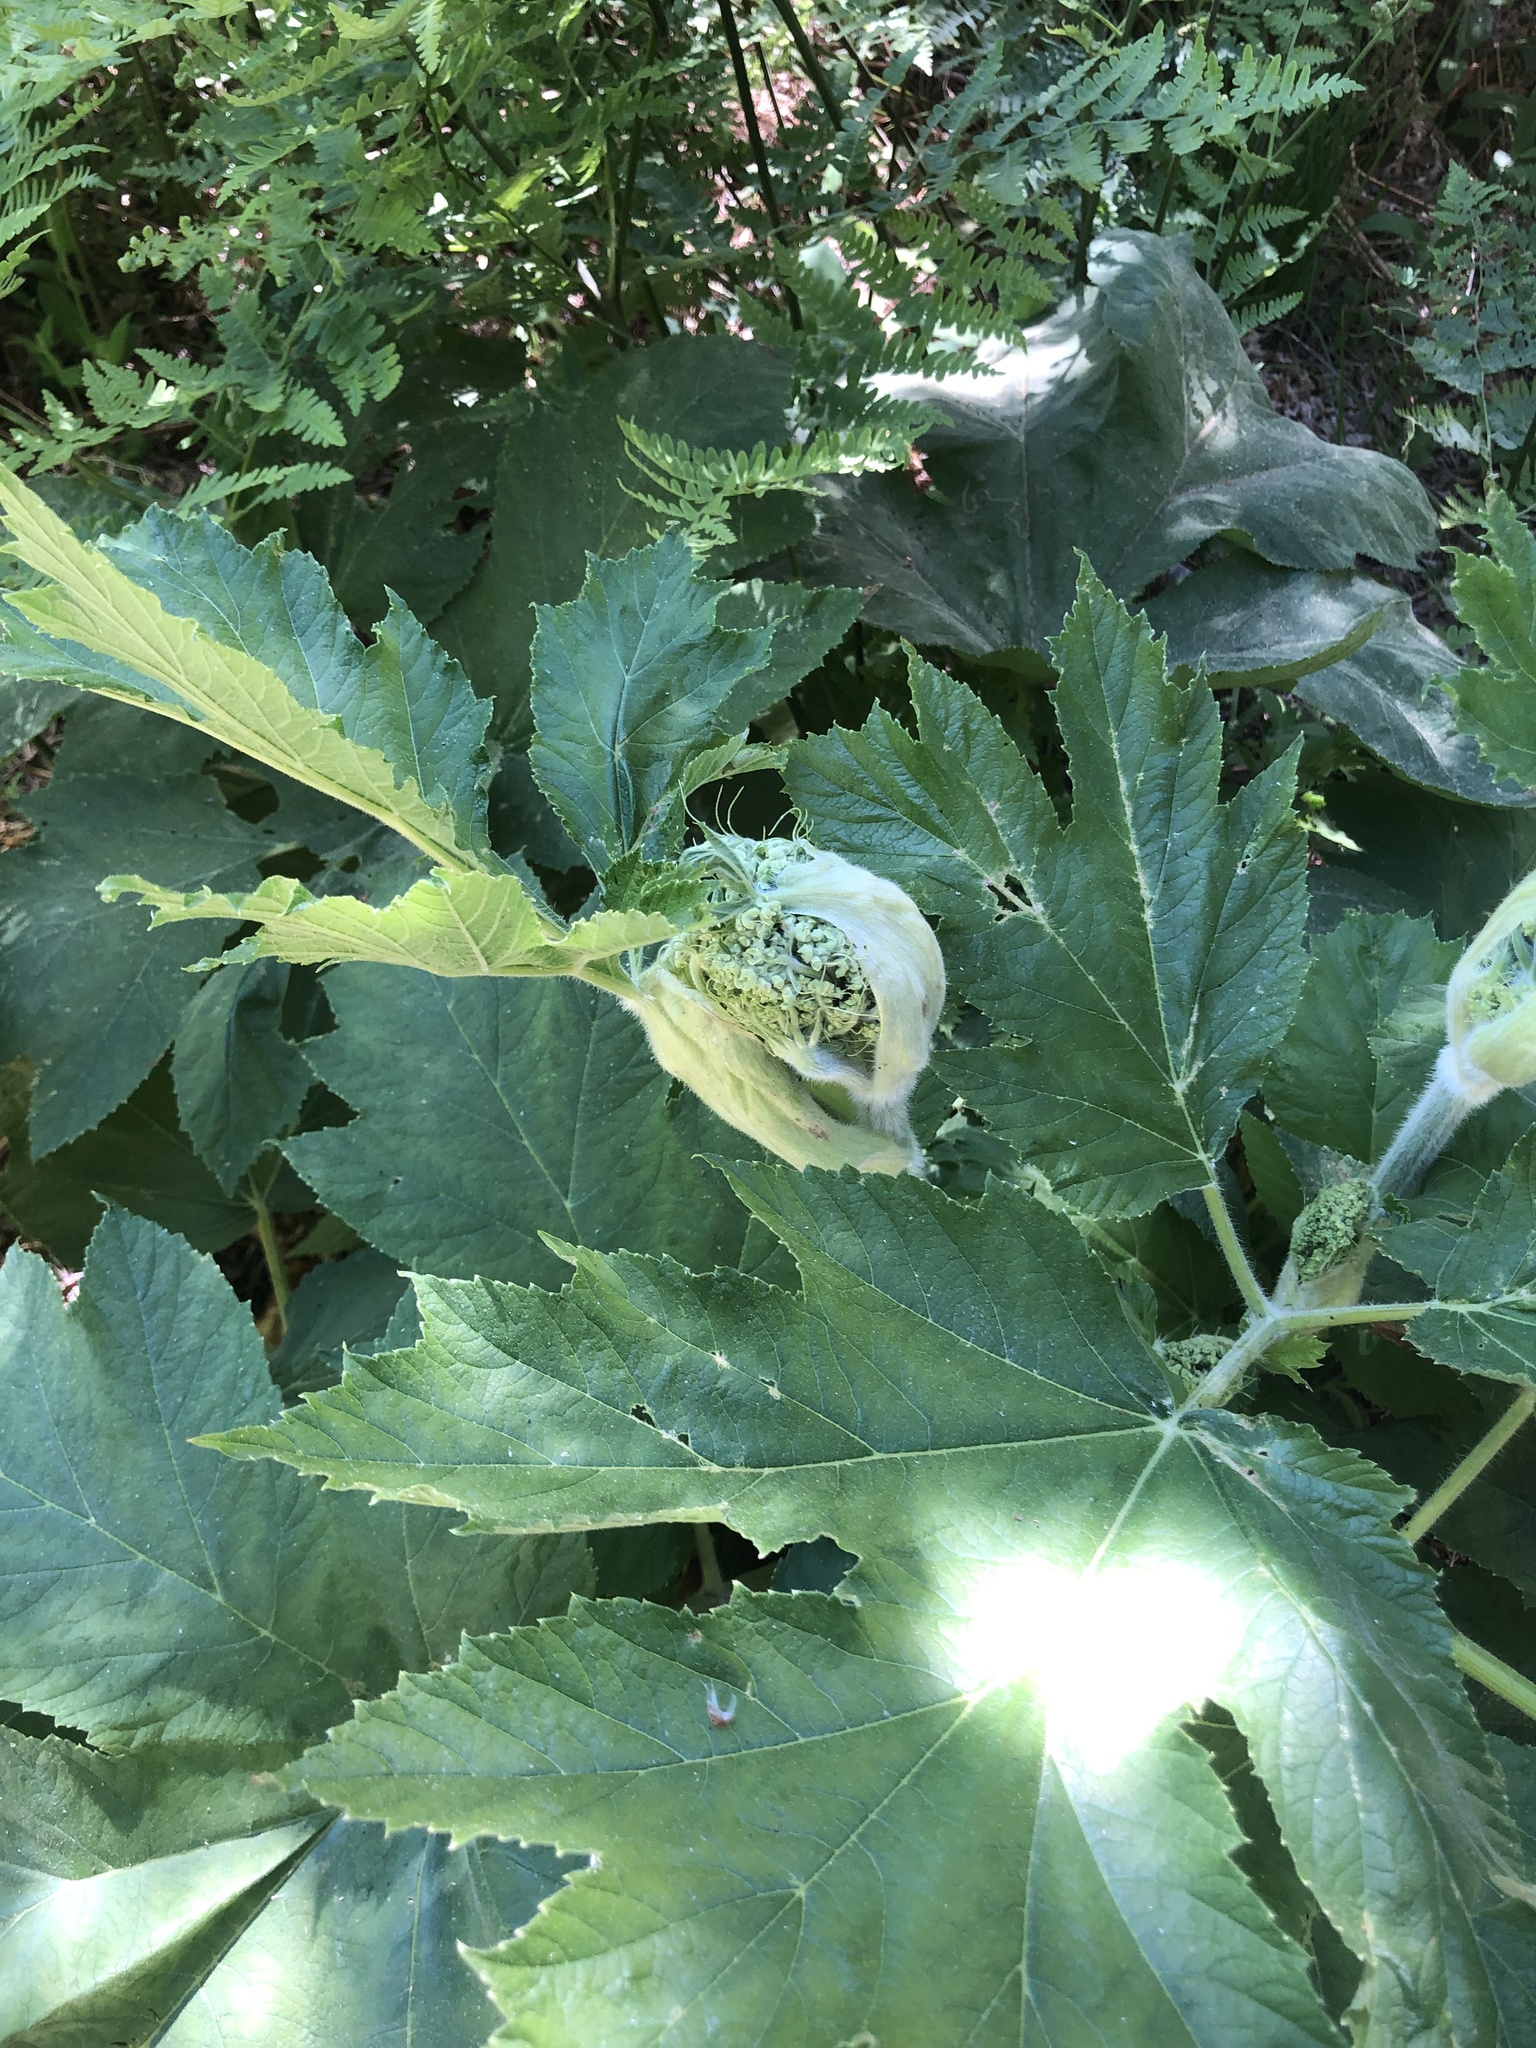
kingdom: Plantae
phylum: Tracheophyta
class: Magnoliopsida
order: Apiales
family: Apiaceae
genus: Heracleum
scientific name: Heracleum maximum
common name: American cow parsnip
